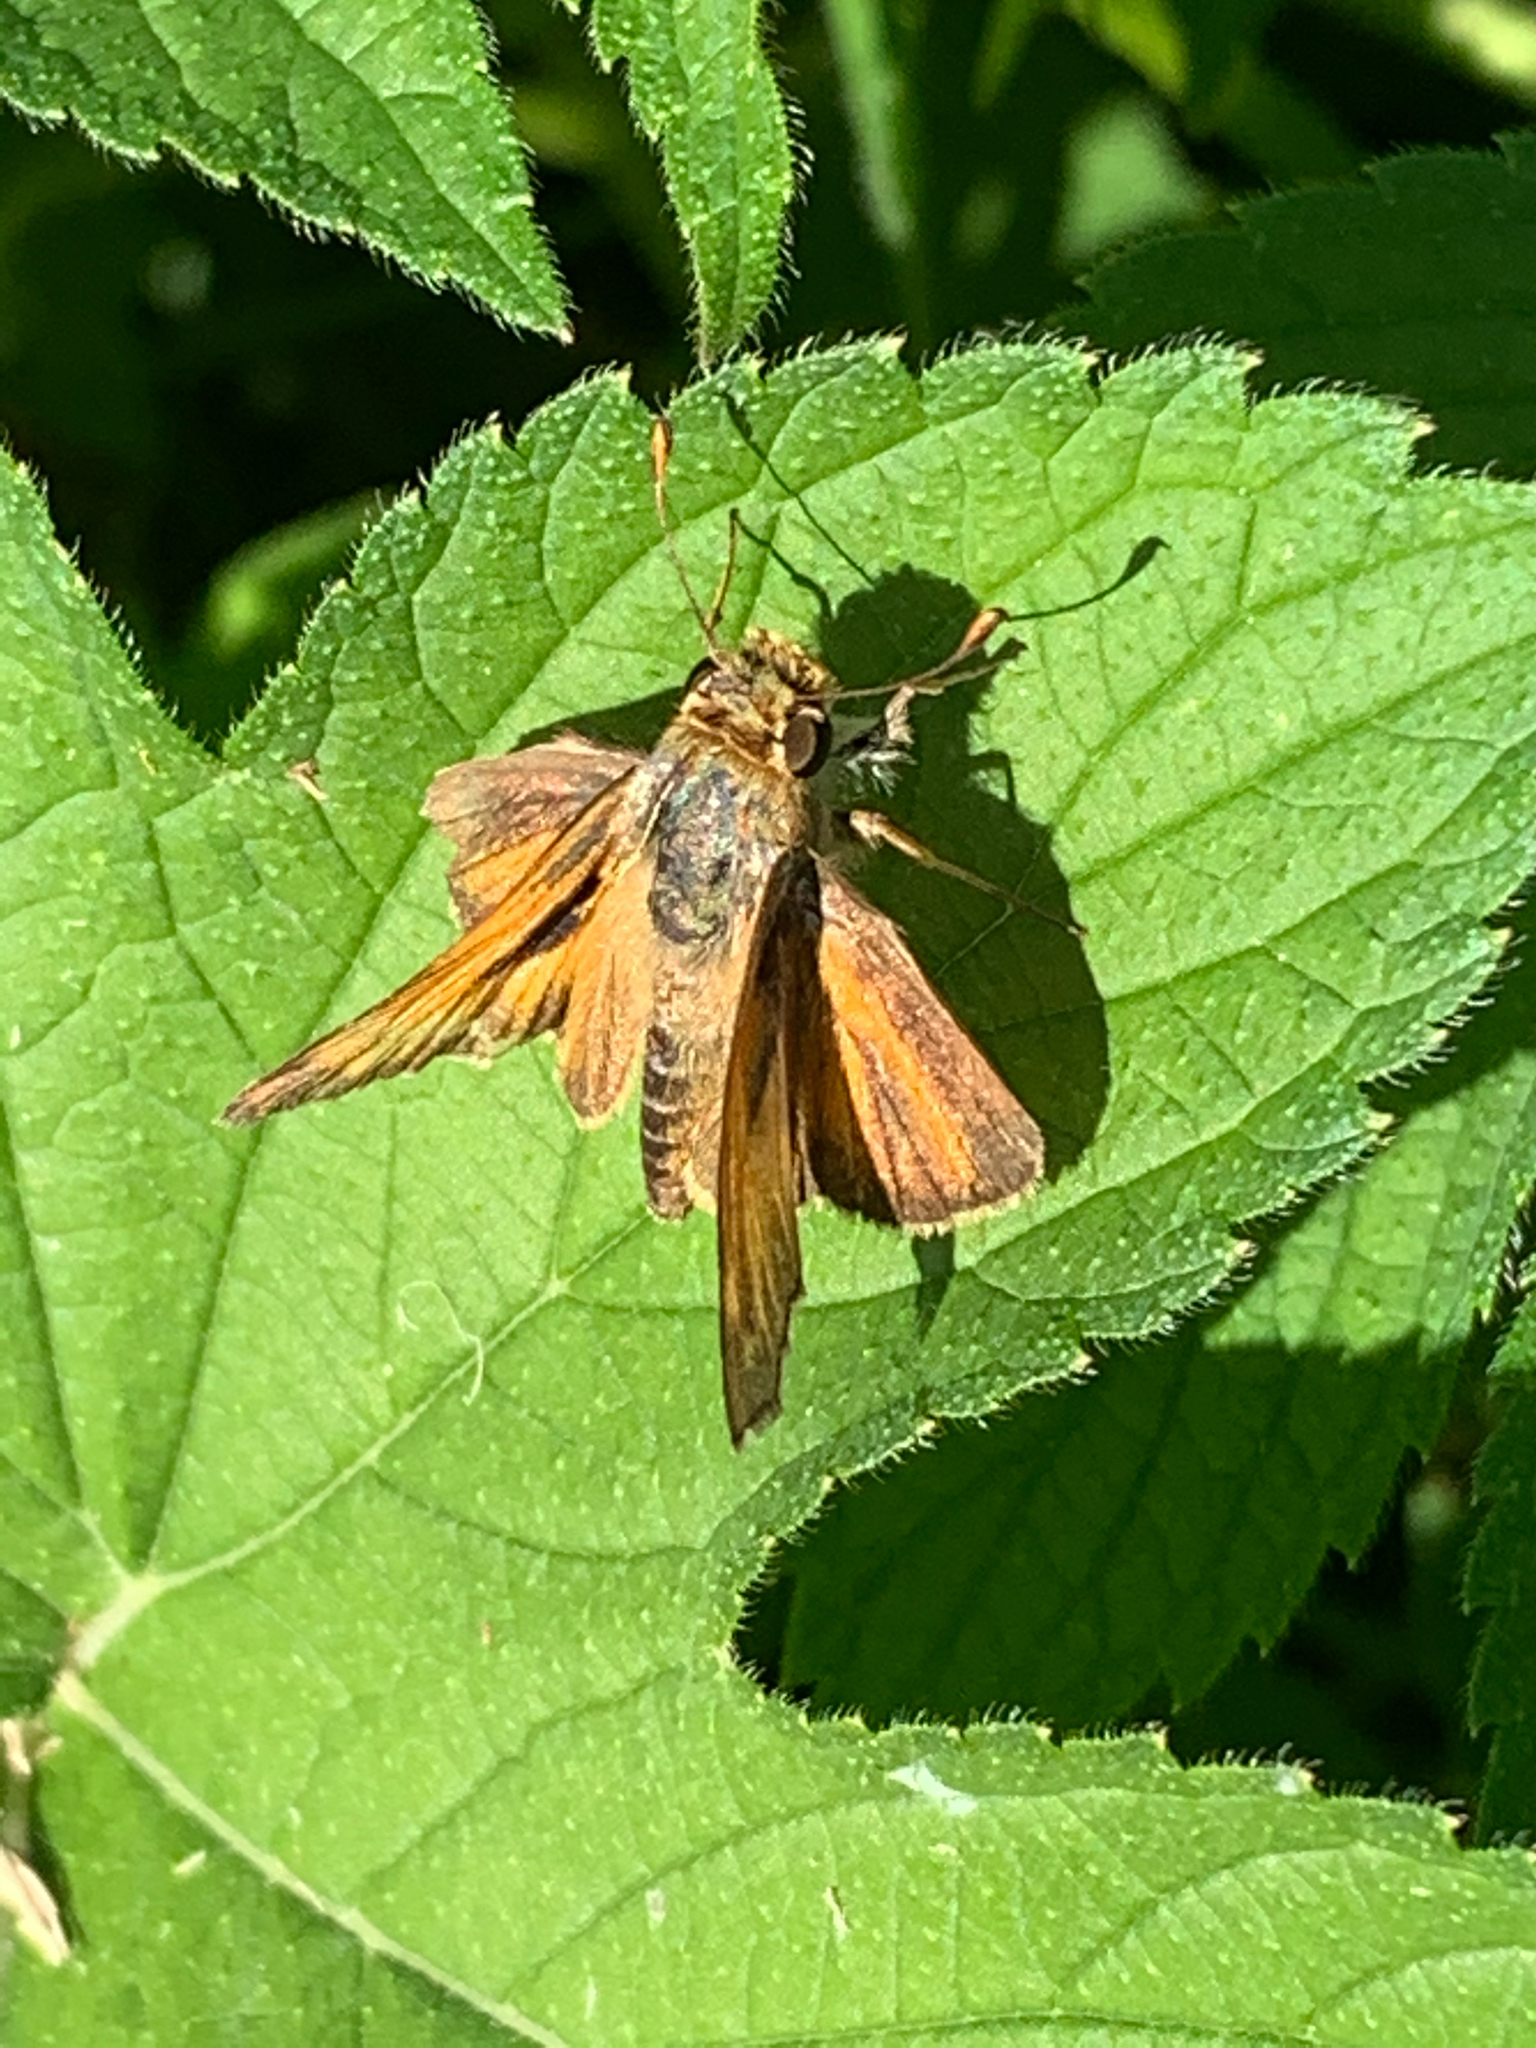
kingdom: Animalia
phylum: Arthropoda
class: Insecta
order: Lepidoptera
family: Hesperiidae
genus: Atalopedes
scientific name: Atalopedes
